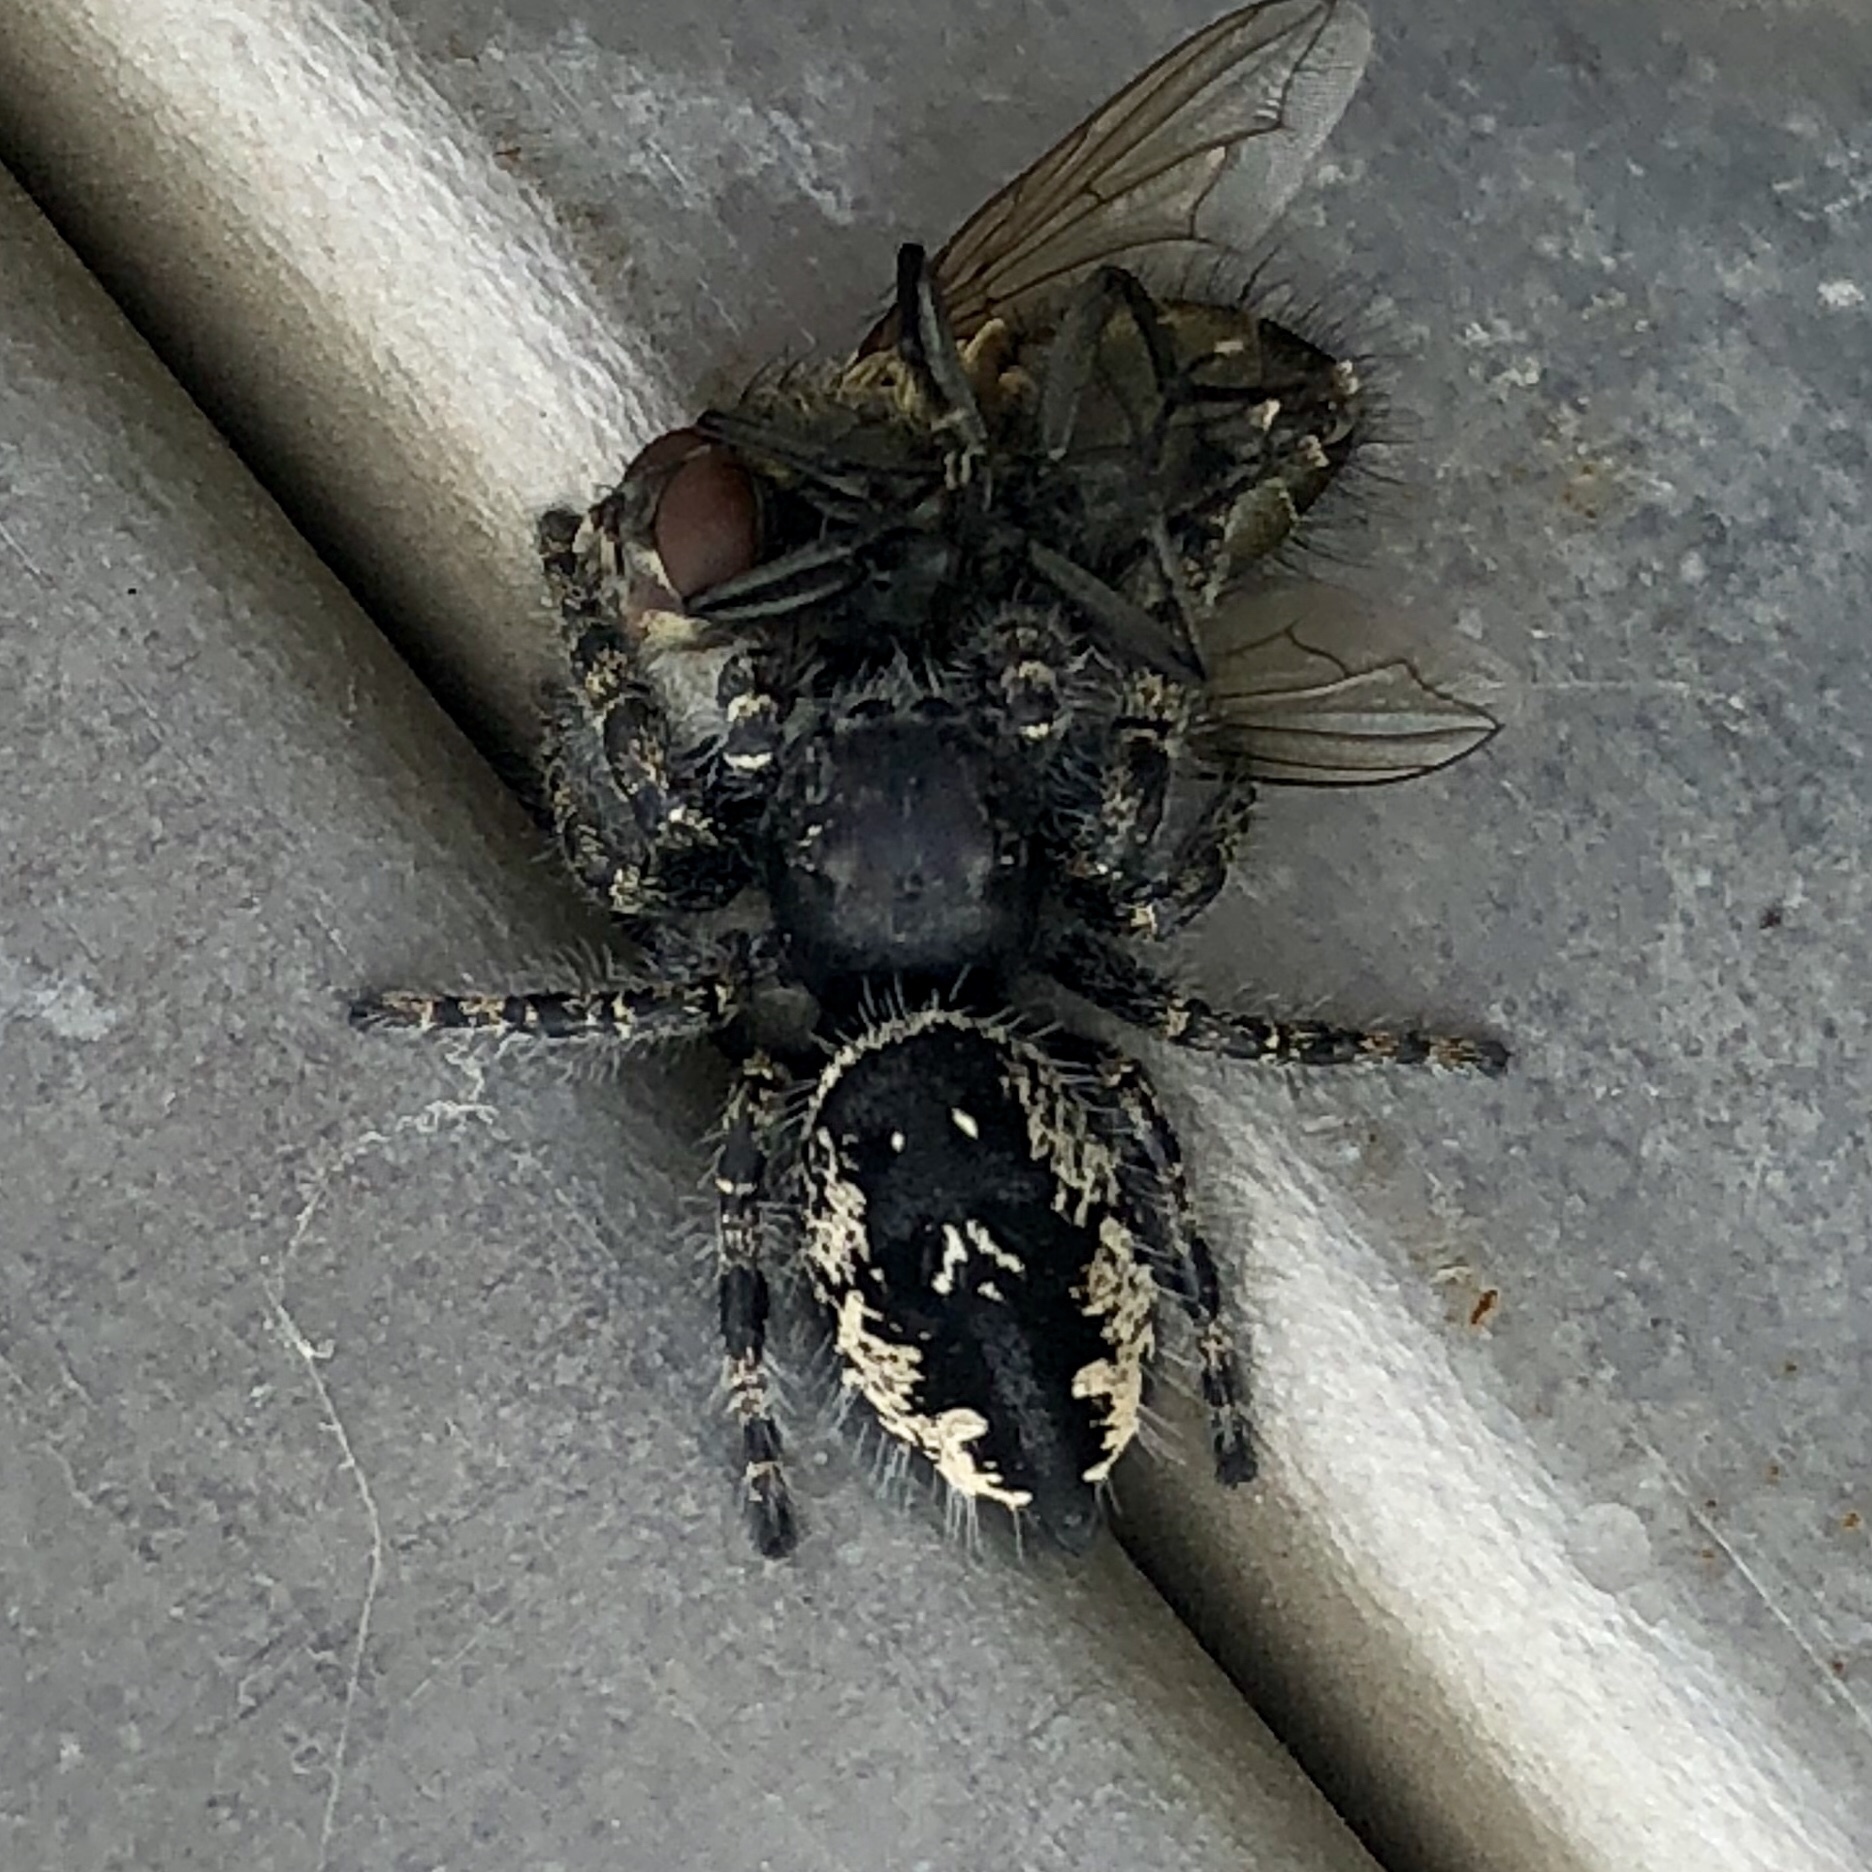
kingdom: Animalia
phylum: Arthropoda
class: Arachnida
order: Araneae
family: Salticidae
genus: Phidippus
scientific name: Phidippus borealis
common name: Boreal tufted jumping spider
